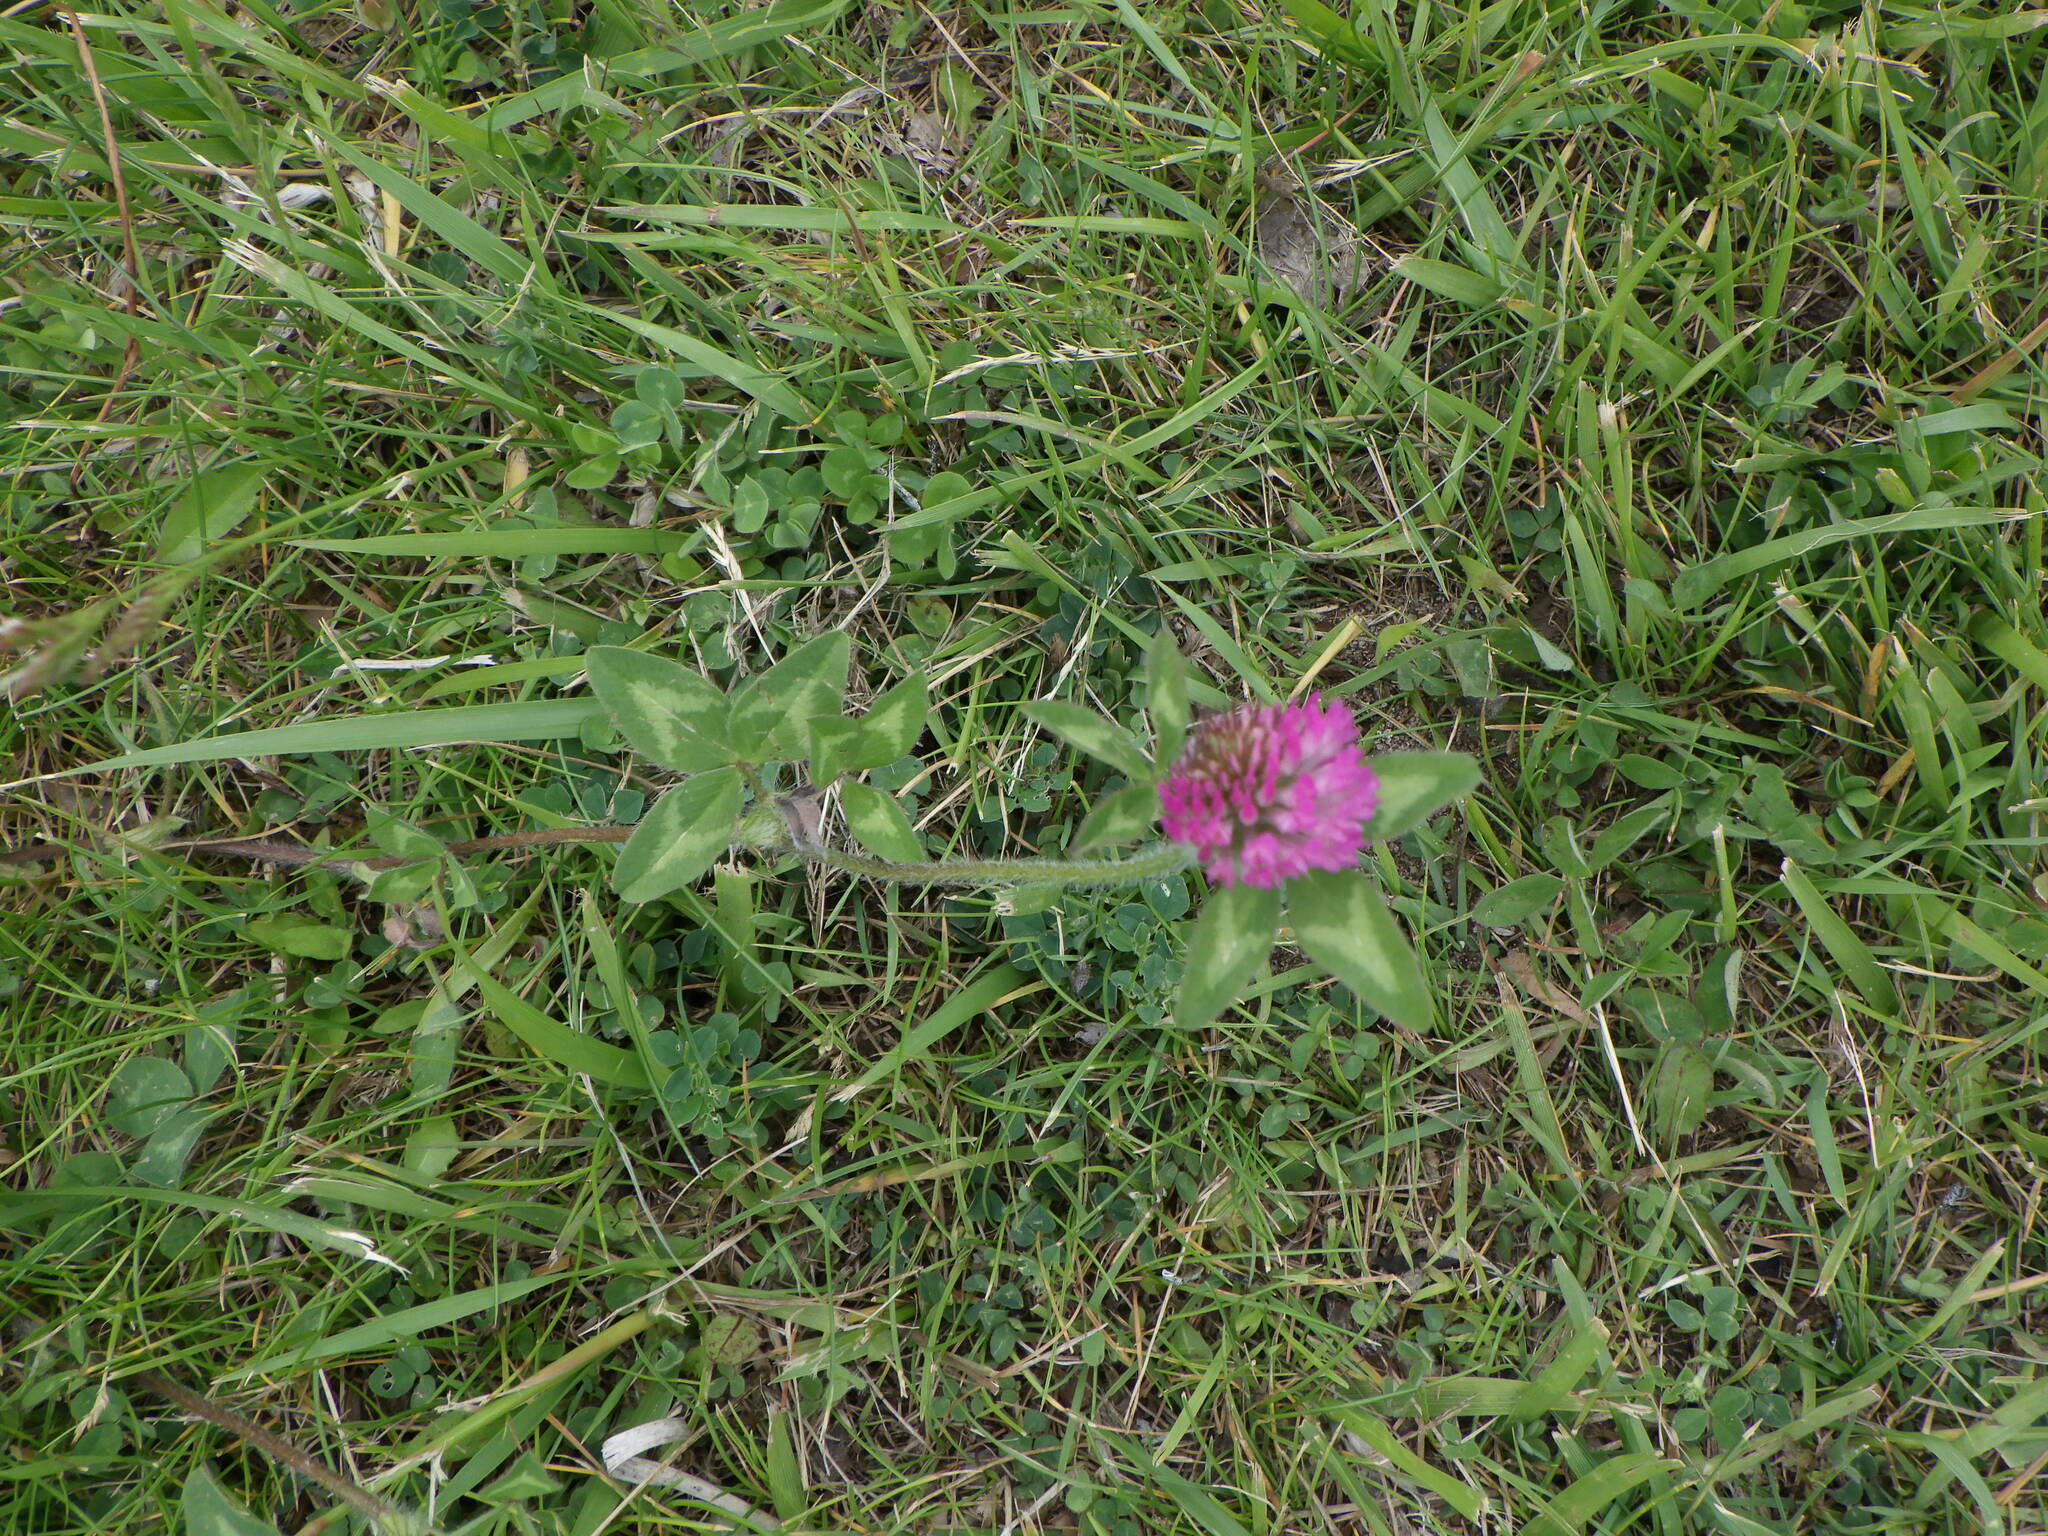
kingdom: Plantae
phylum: Tracheophyta
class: Magnoliopsida
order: Fabales
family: Fabaceae
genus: Trifolium
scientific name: Trifolium pratense
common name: Red clover
